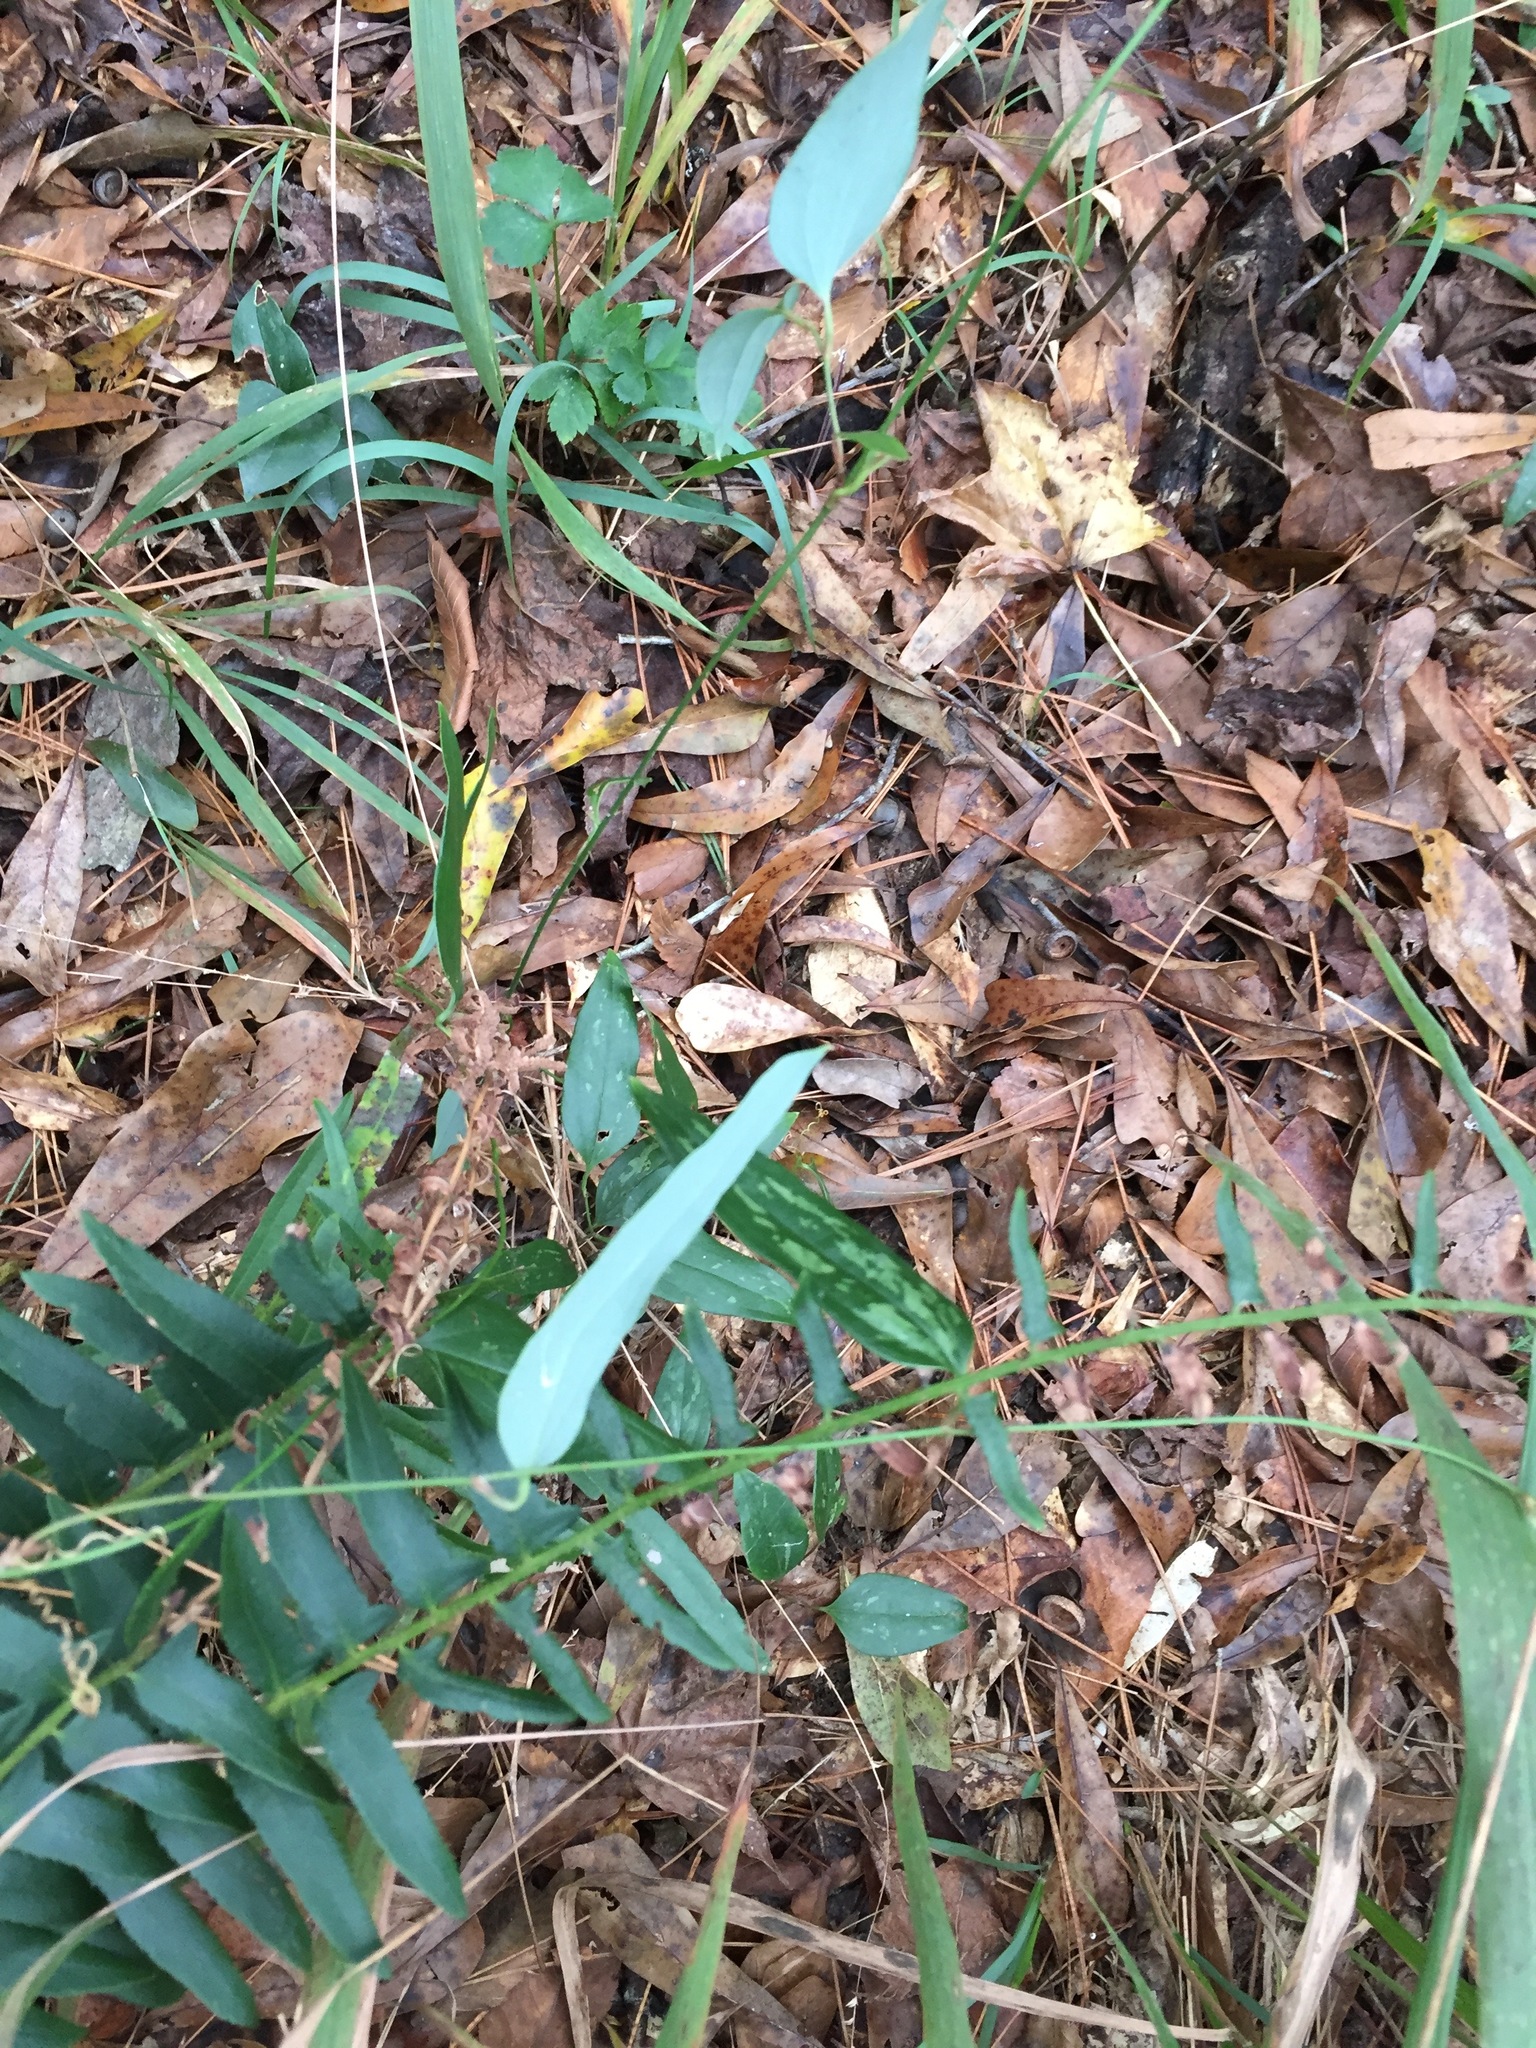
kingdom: Plantae
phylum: Tracheophyta
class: Liliopsida
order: Liliales
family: Smilacaceae
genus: Smilax
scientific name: Smilax glauca
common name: Cat greenbrier
